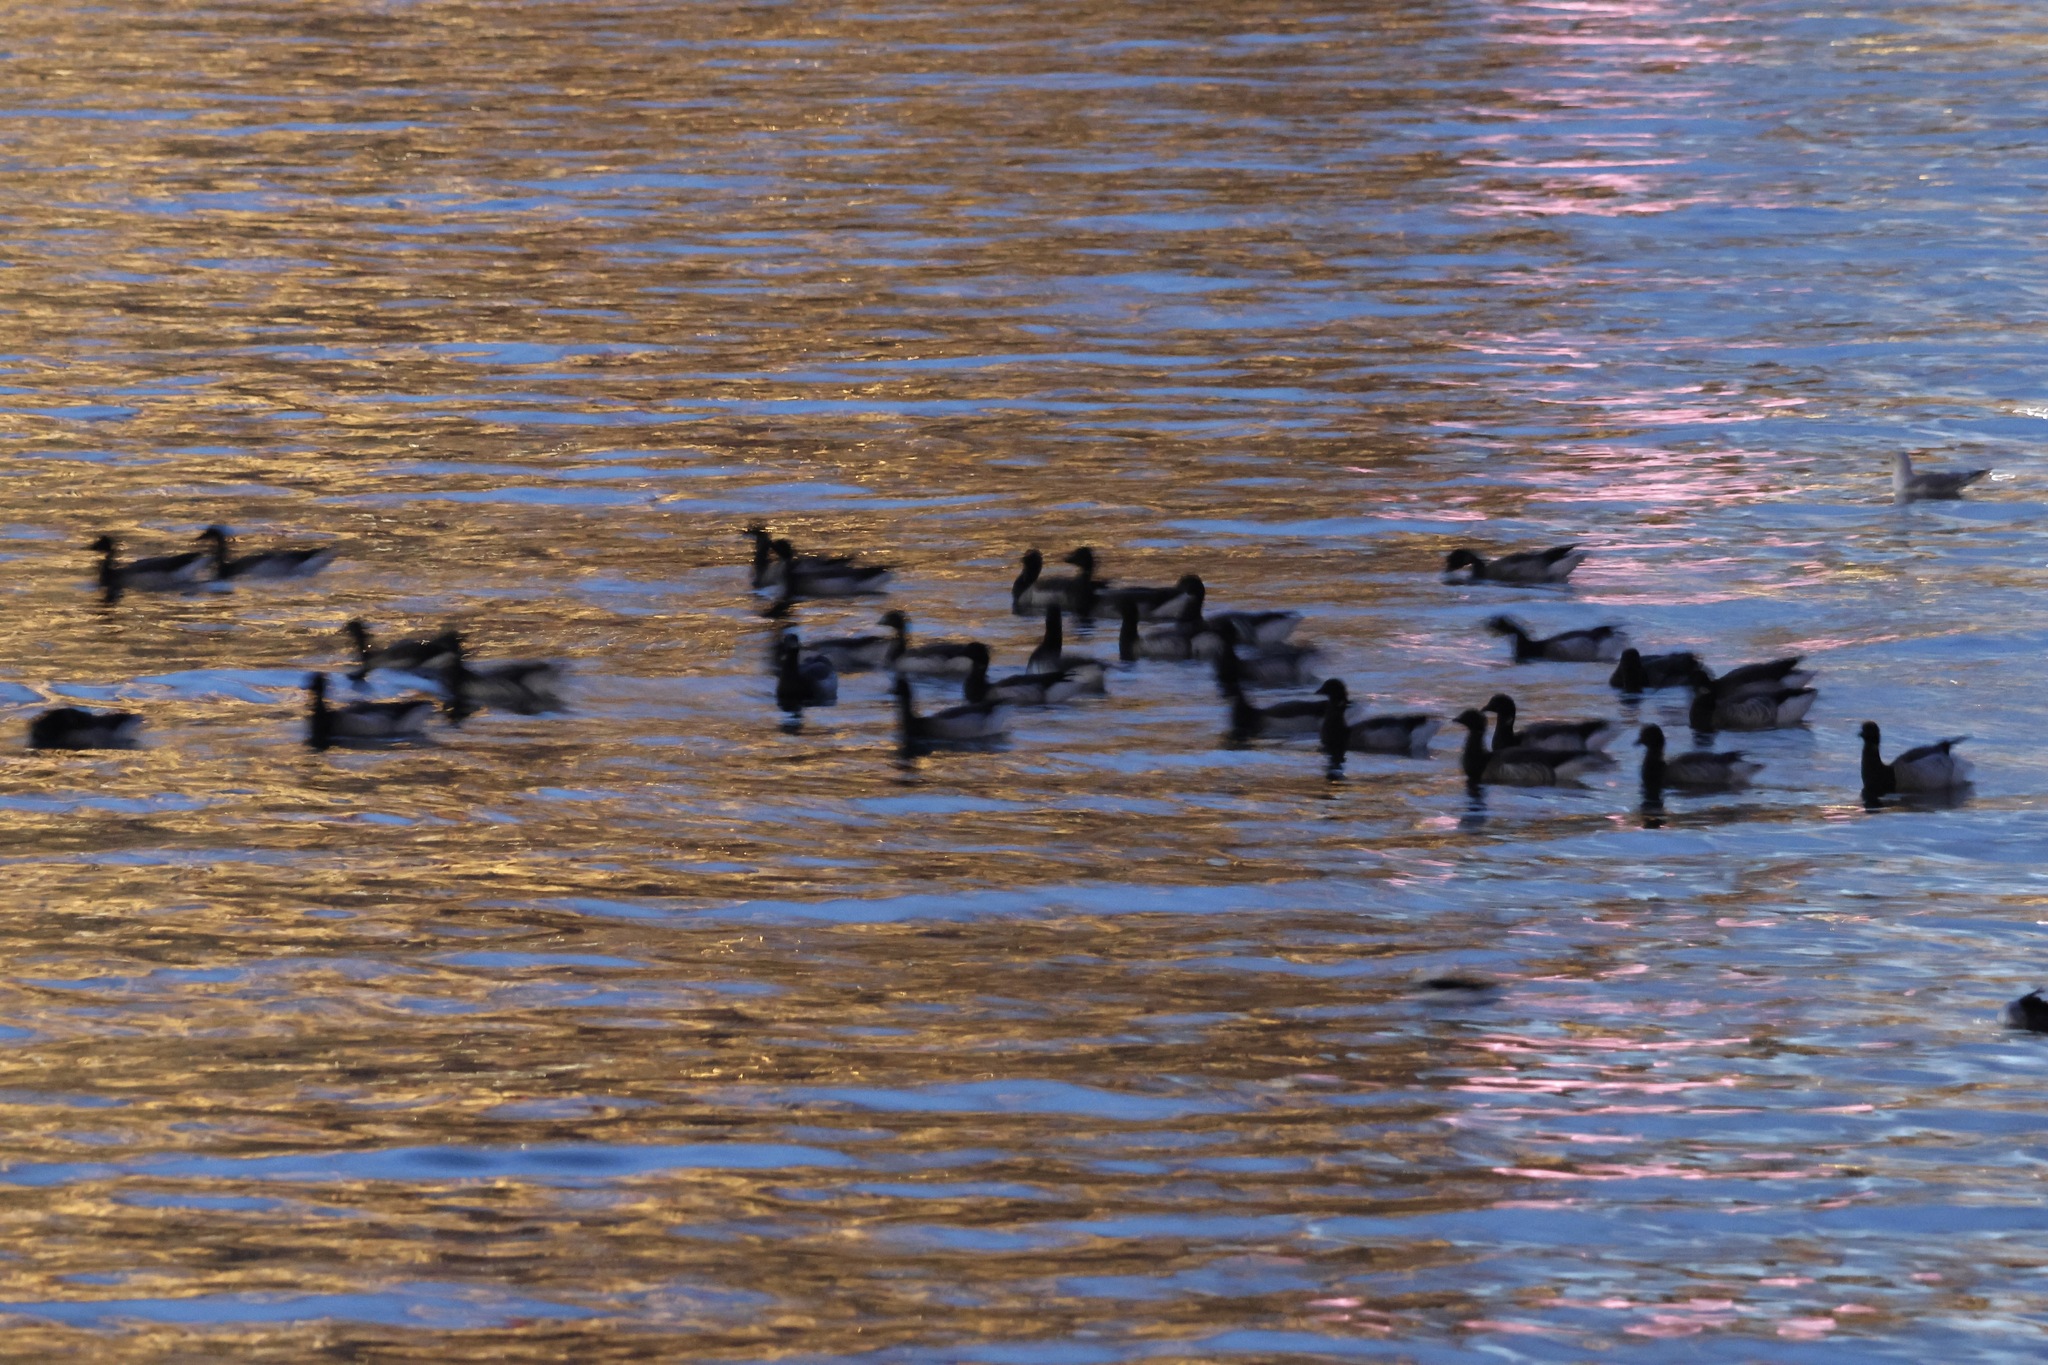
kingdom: Animalia
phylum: Chordata
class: Aves
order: Anseriformes
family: Anatidae
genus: Branta
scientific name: Branta bernicla
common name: Brant goose
